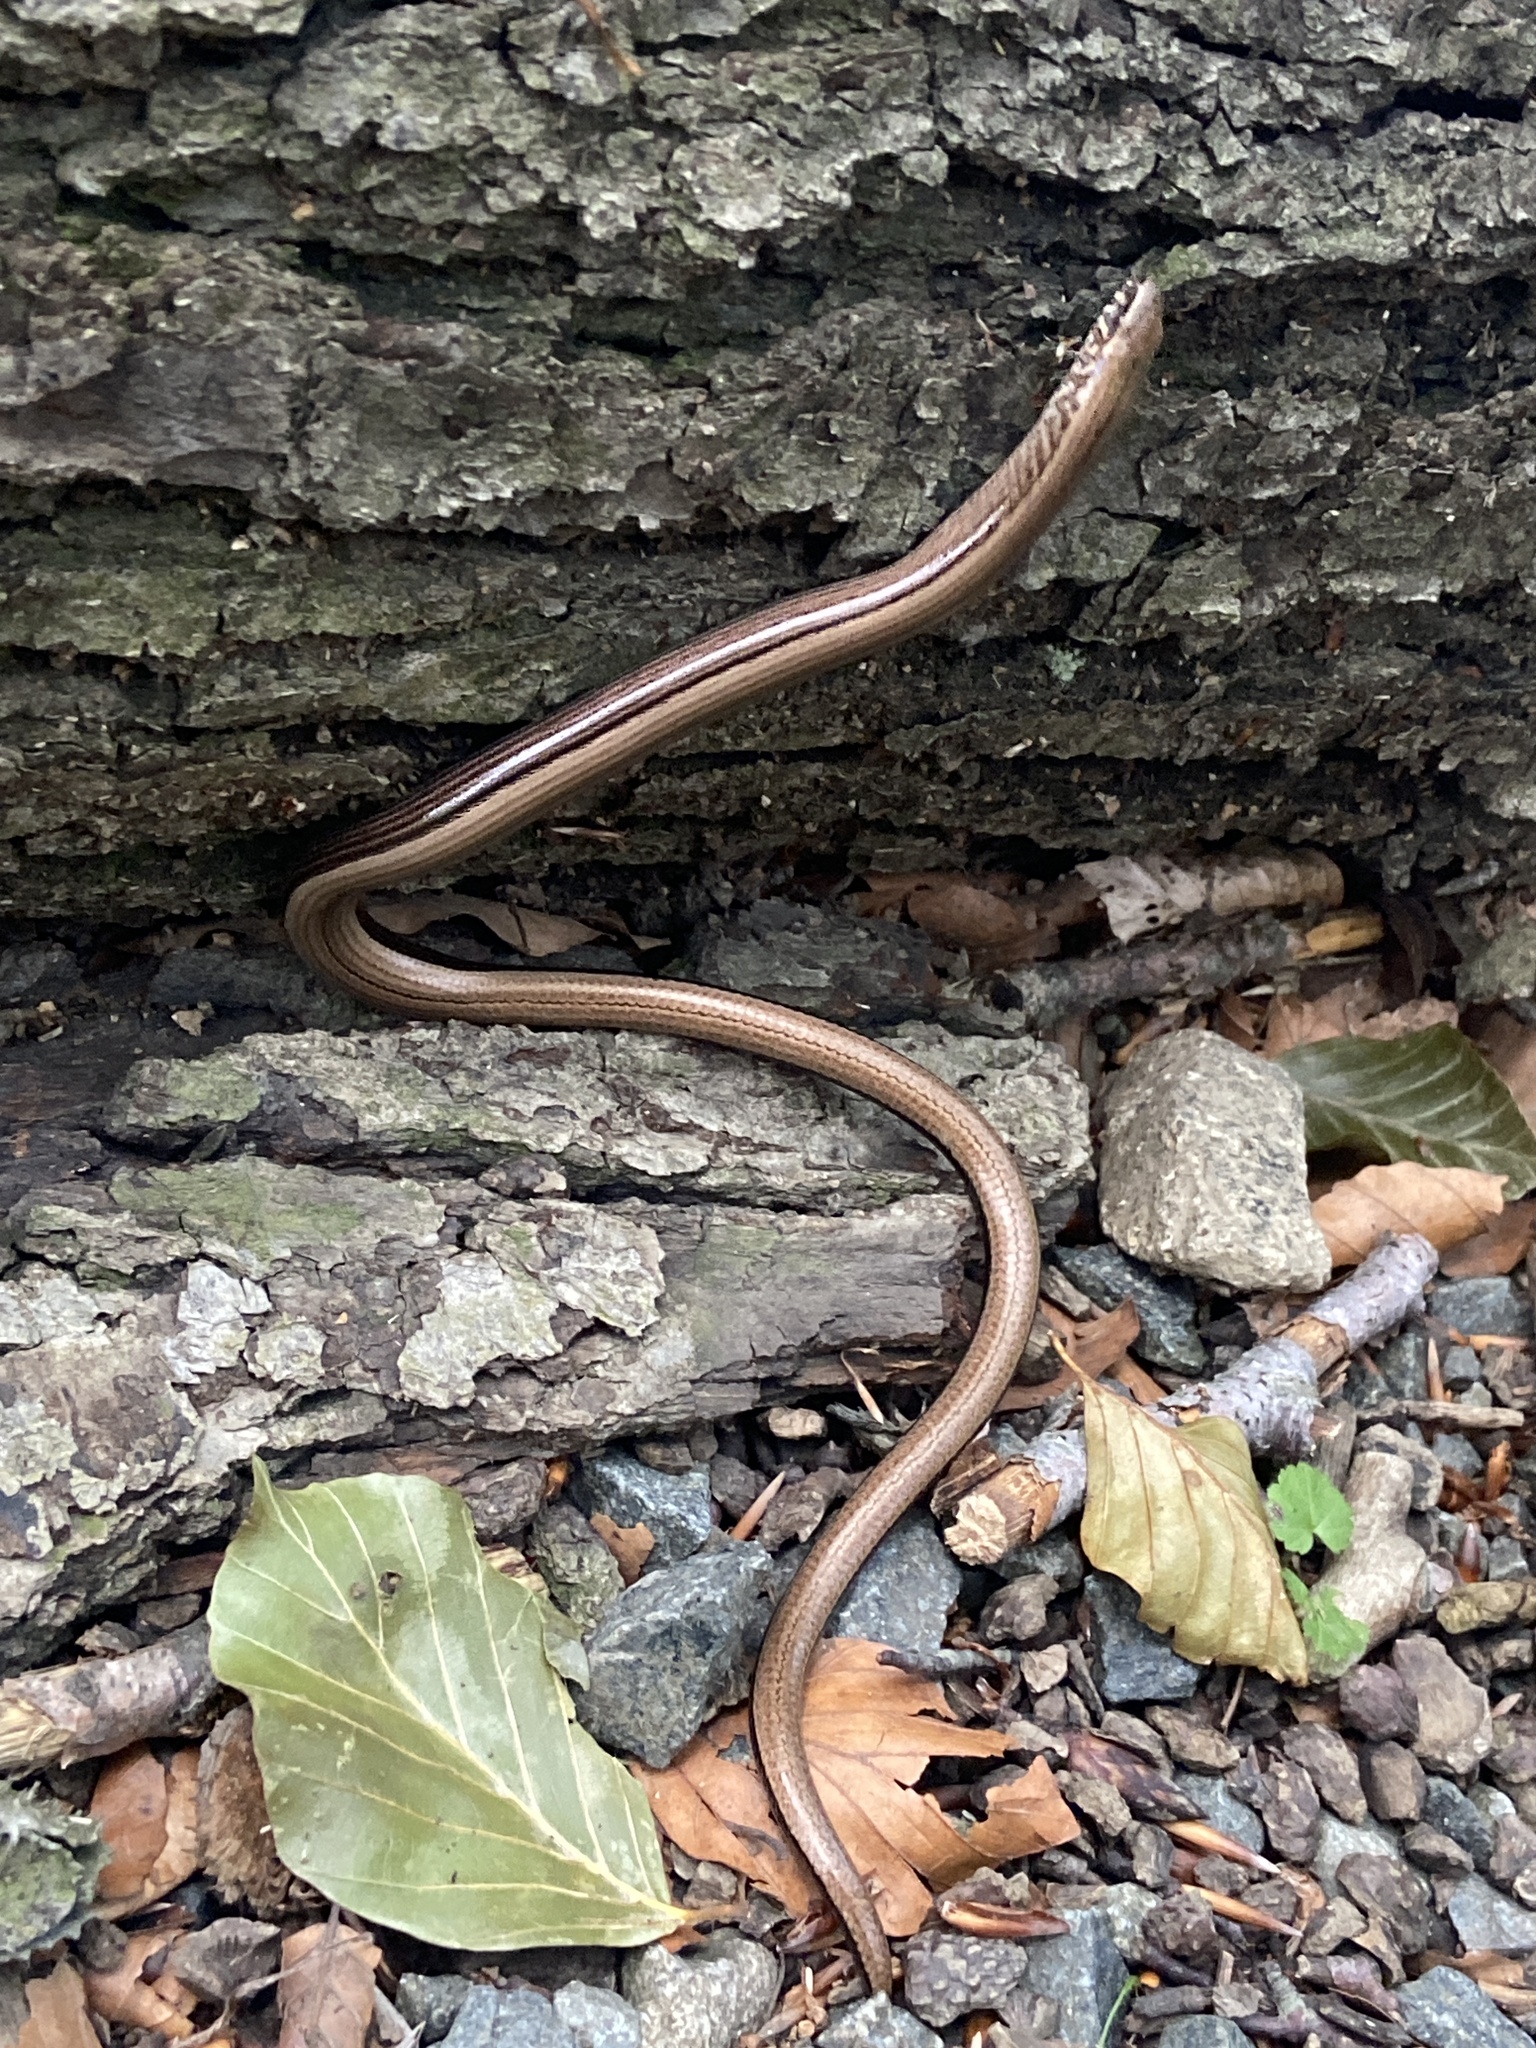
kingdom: Animalia
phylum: Chordata
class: Squamata
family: Anguidae
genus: Anguis
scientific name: Anguis fragilis
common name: Slow worm
